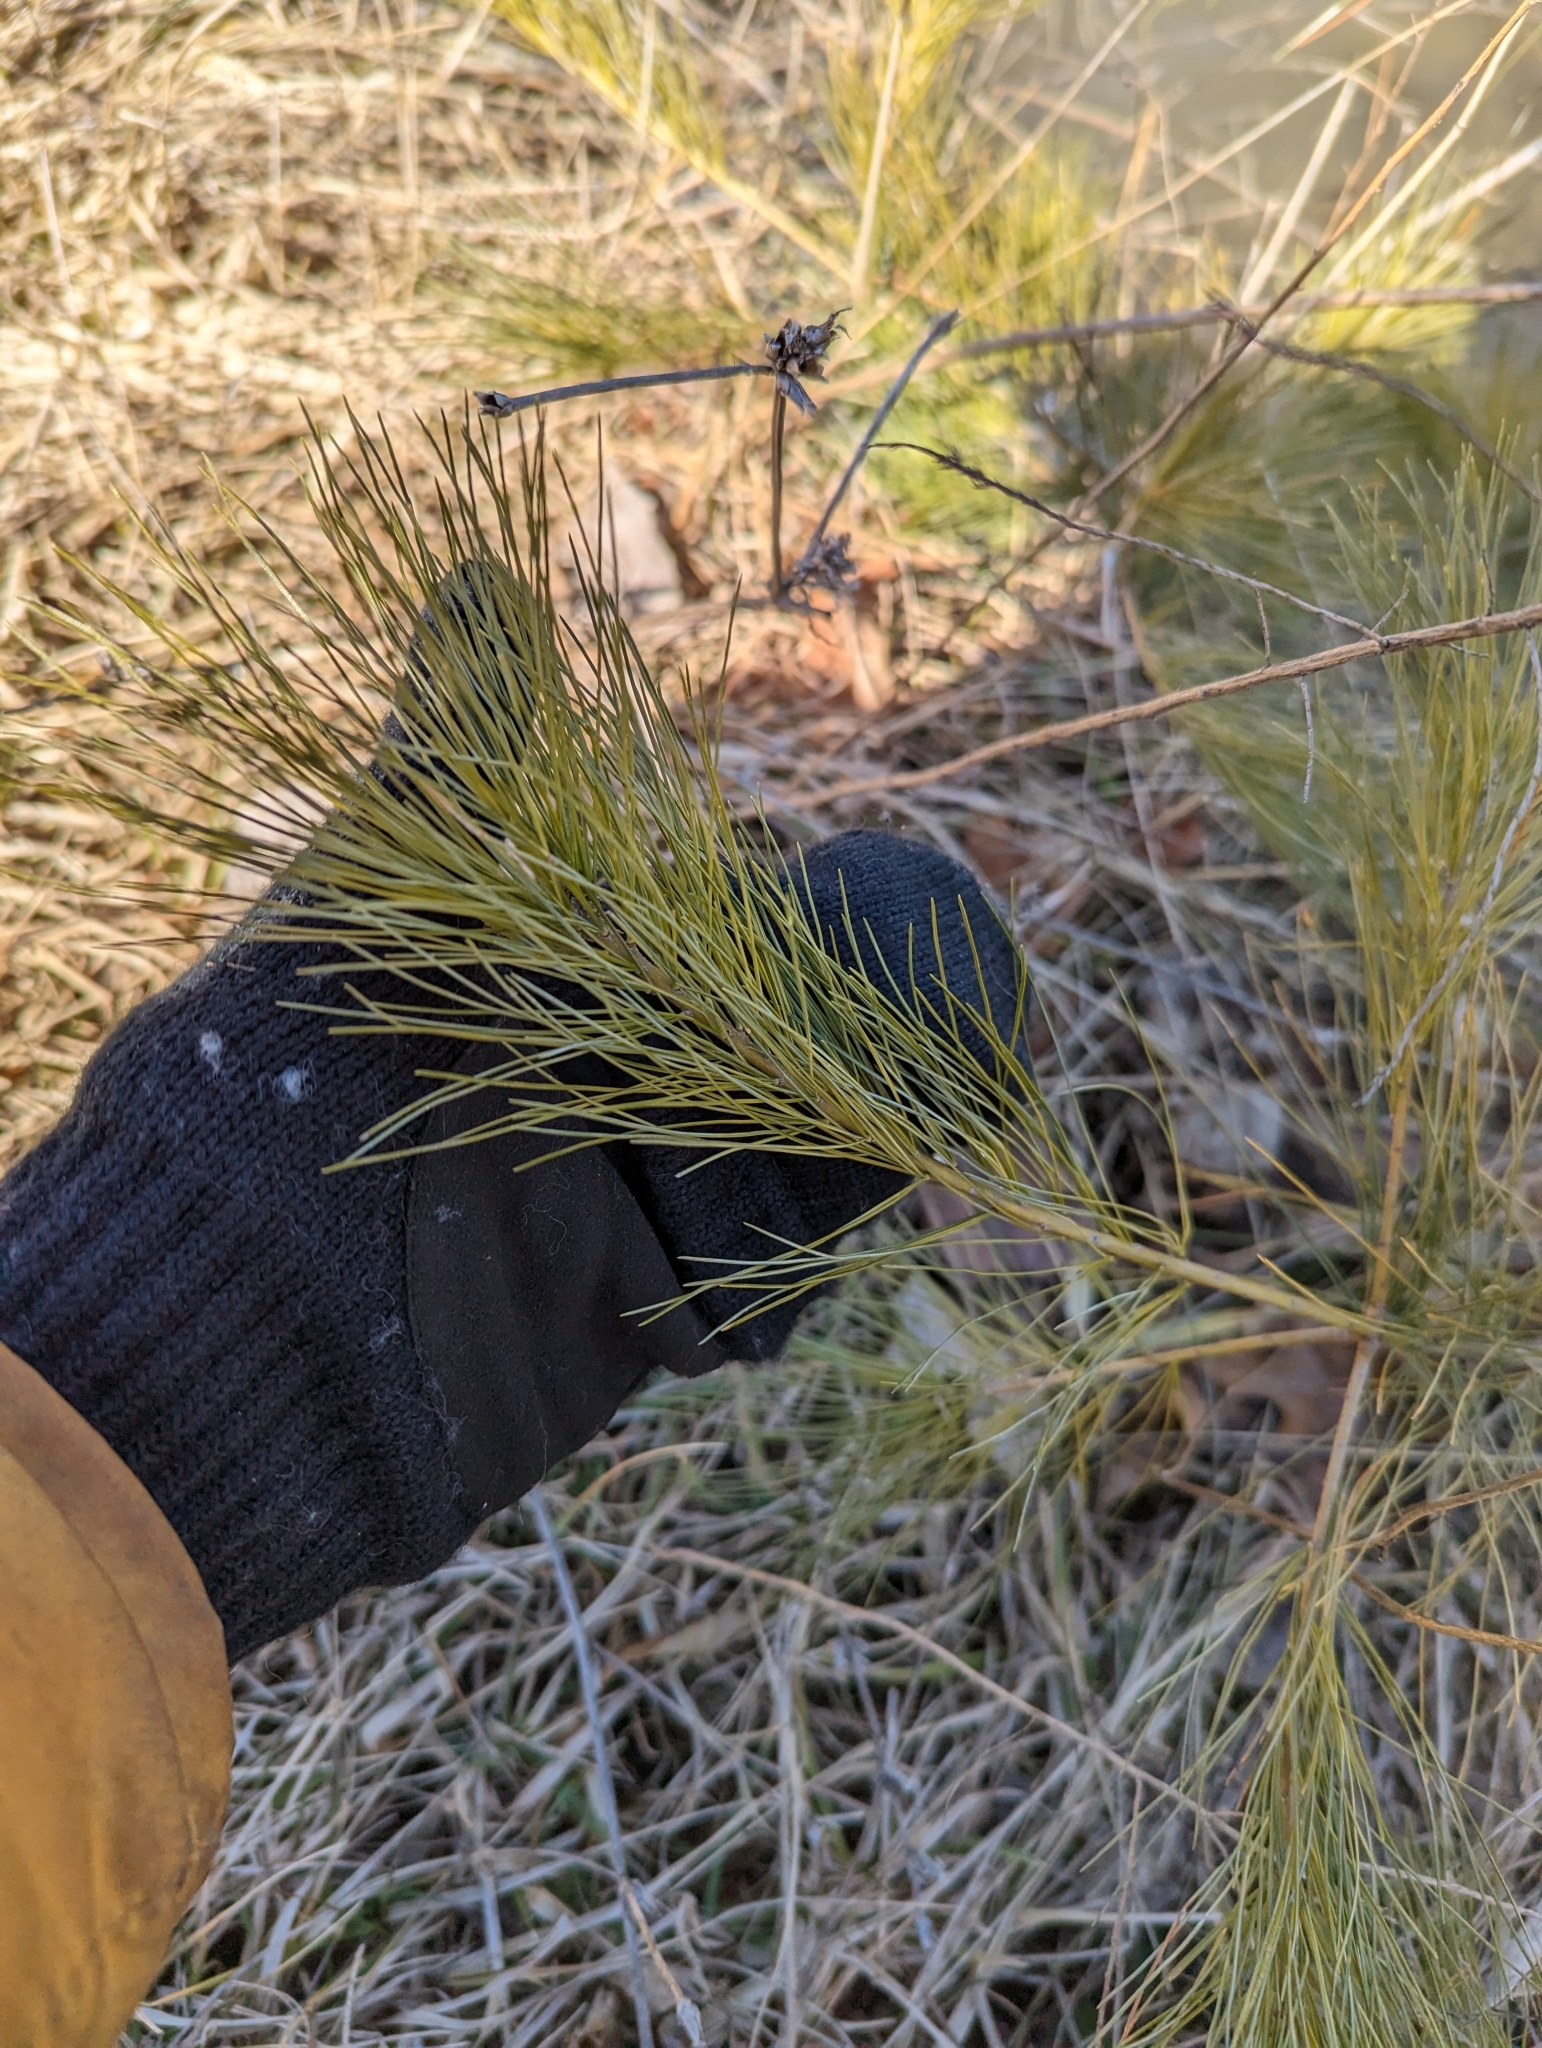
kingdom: Plantae
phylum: Tracheophyta
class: Pinopsida
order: Pinales
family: Pinaceae
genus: Pinus
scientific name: Pinus strobus
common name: Weymouth pine
